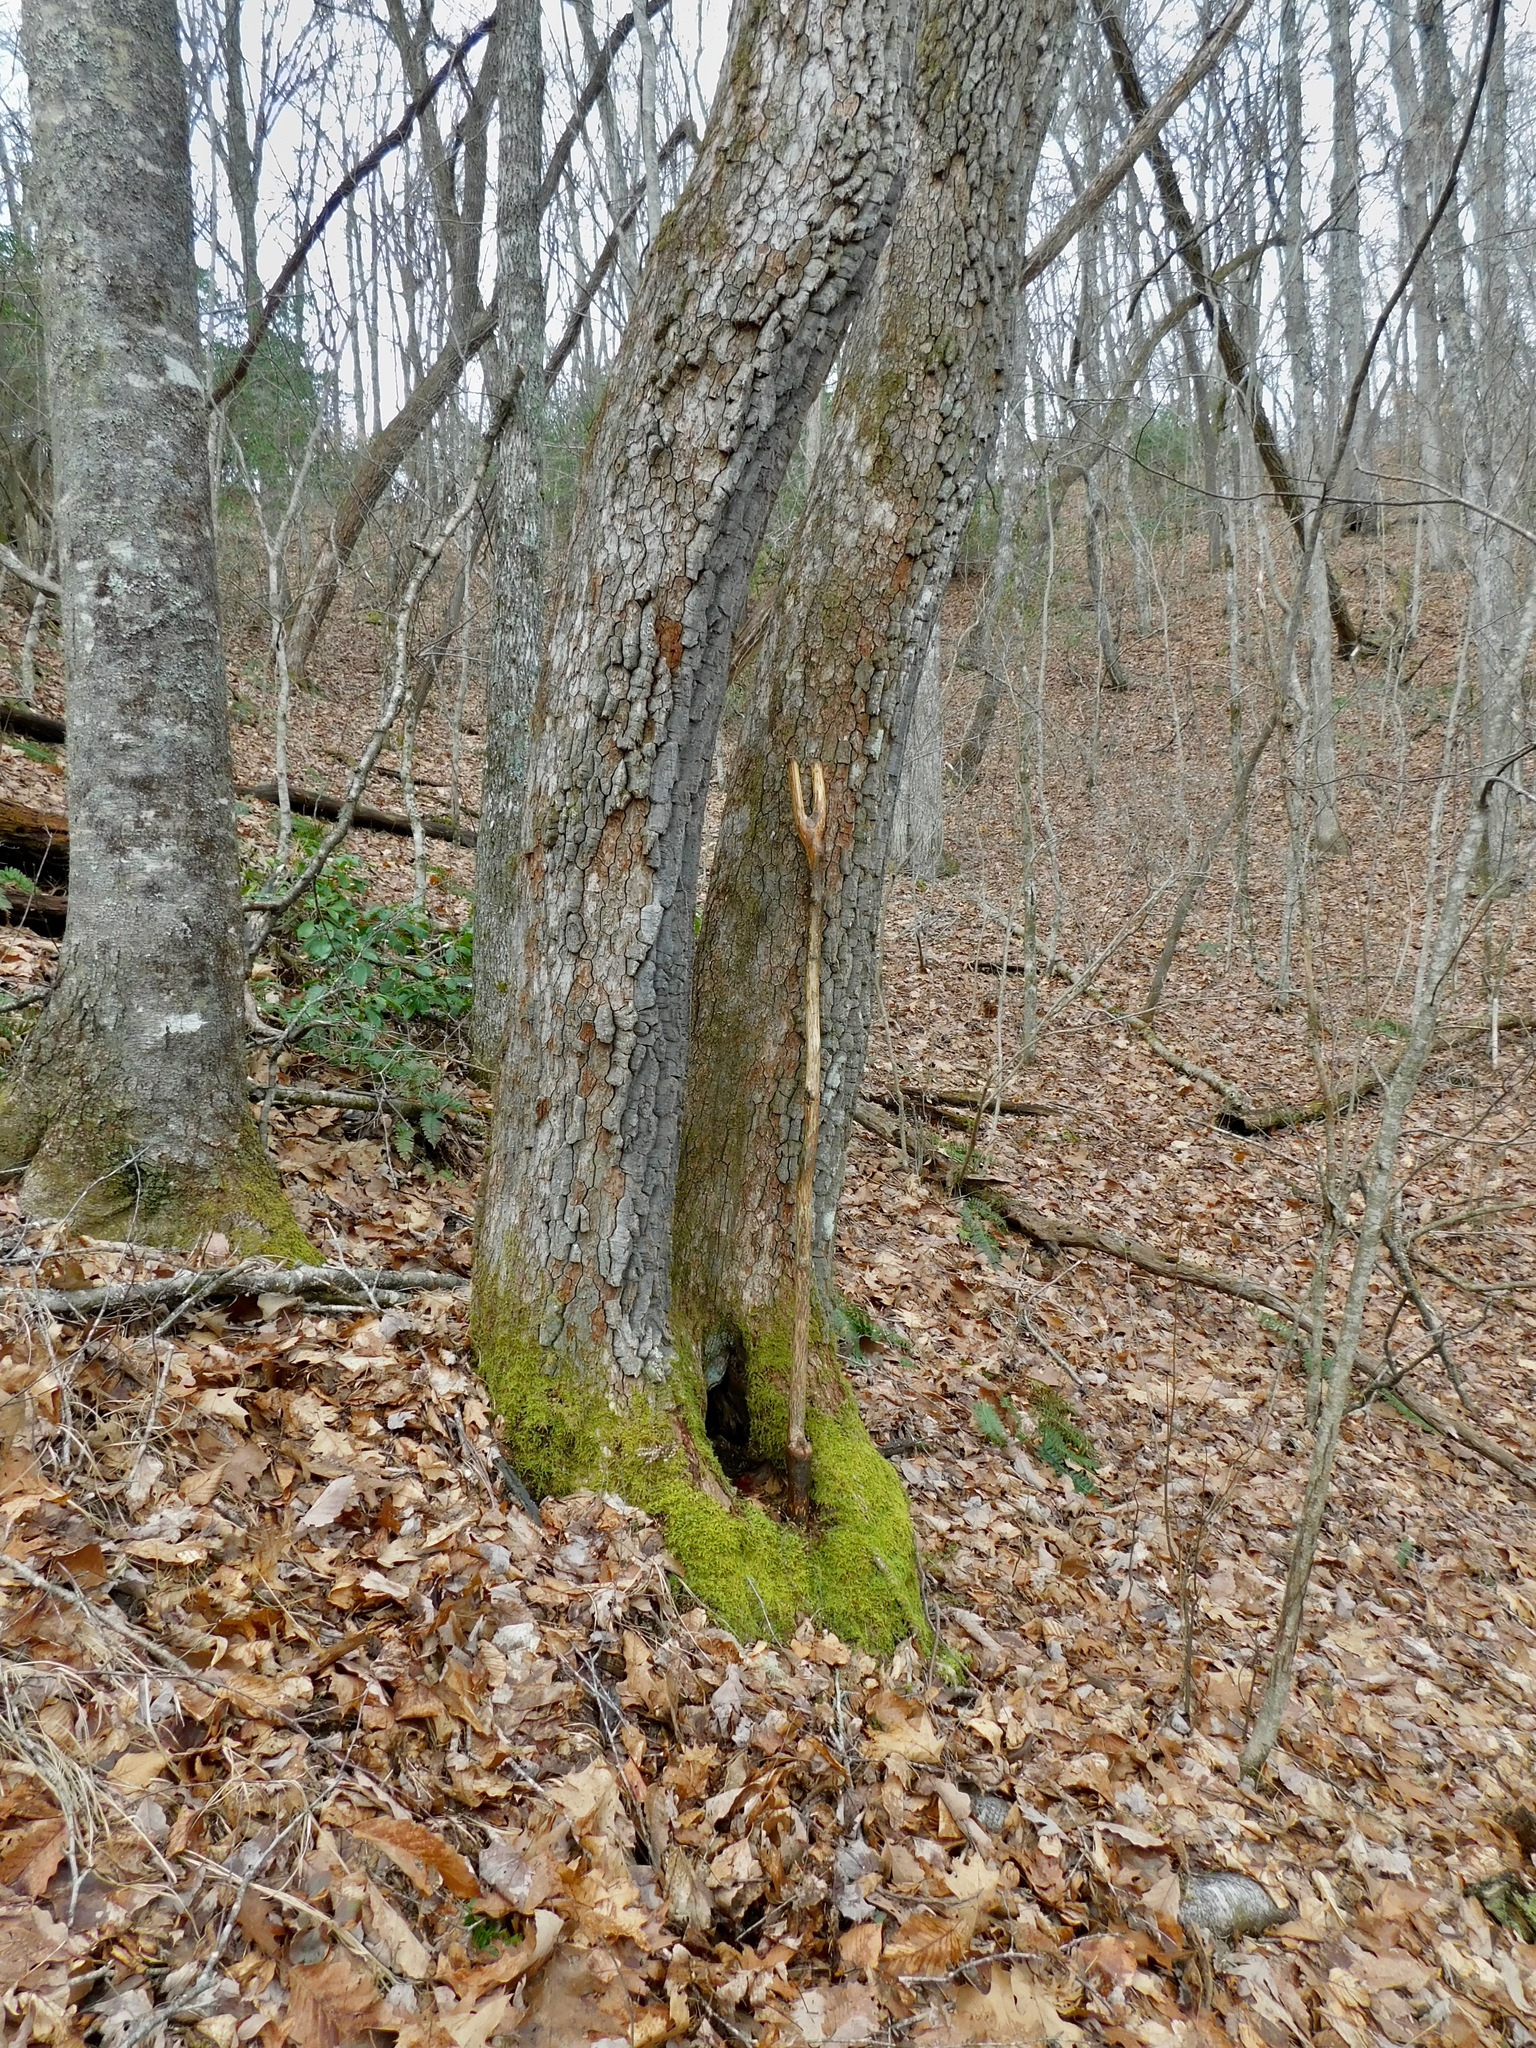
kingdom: Plantae
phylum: Tracheophyta
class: Magnoliopsida
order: Ericales
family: Ericaceae
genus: Oxydendrum
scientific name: Oxydendrum arboreum
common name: Sourwood
